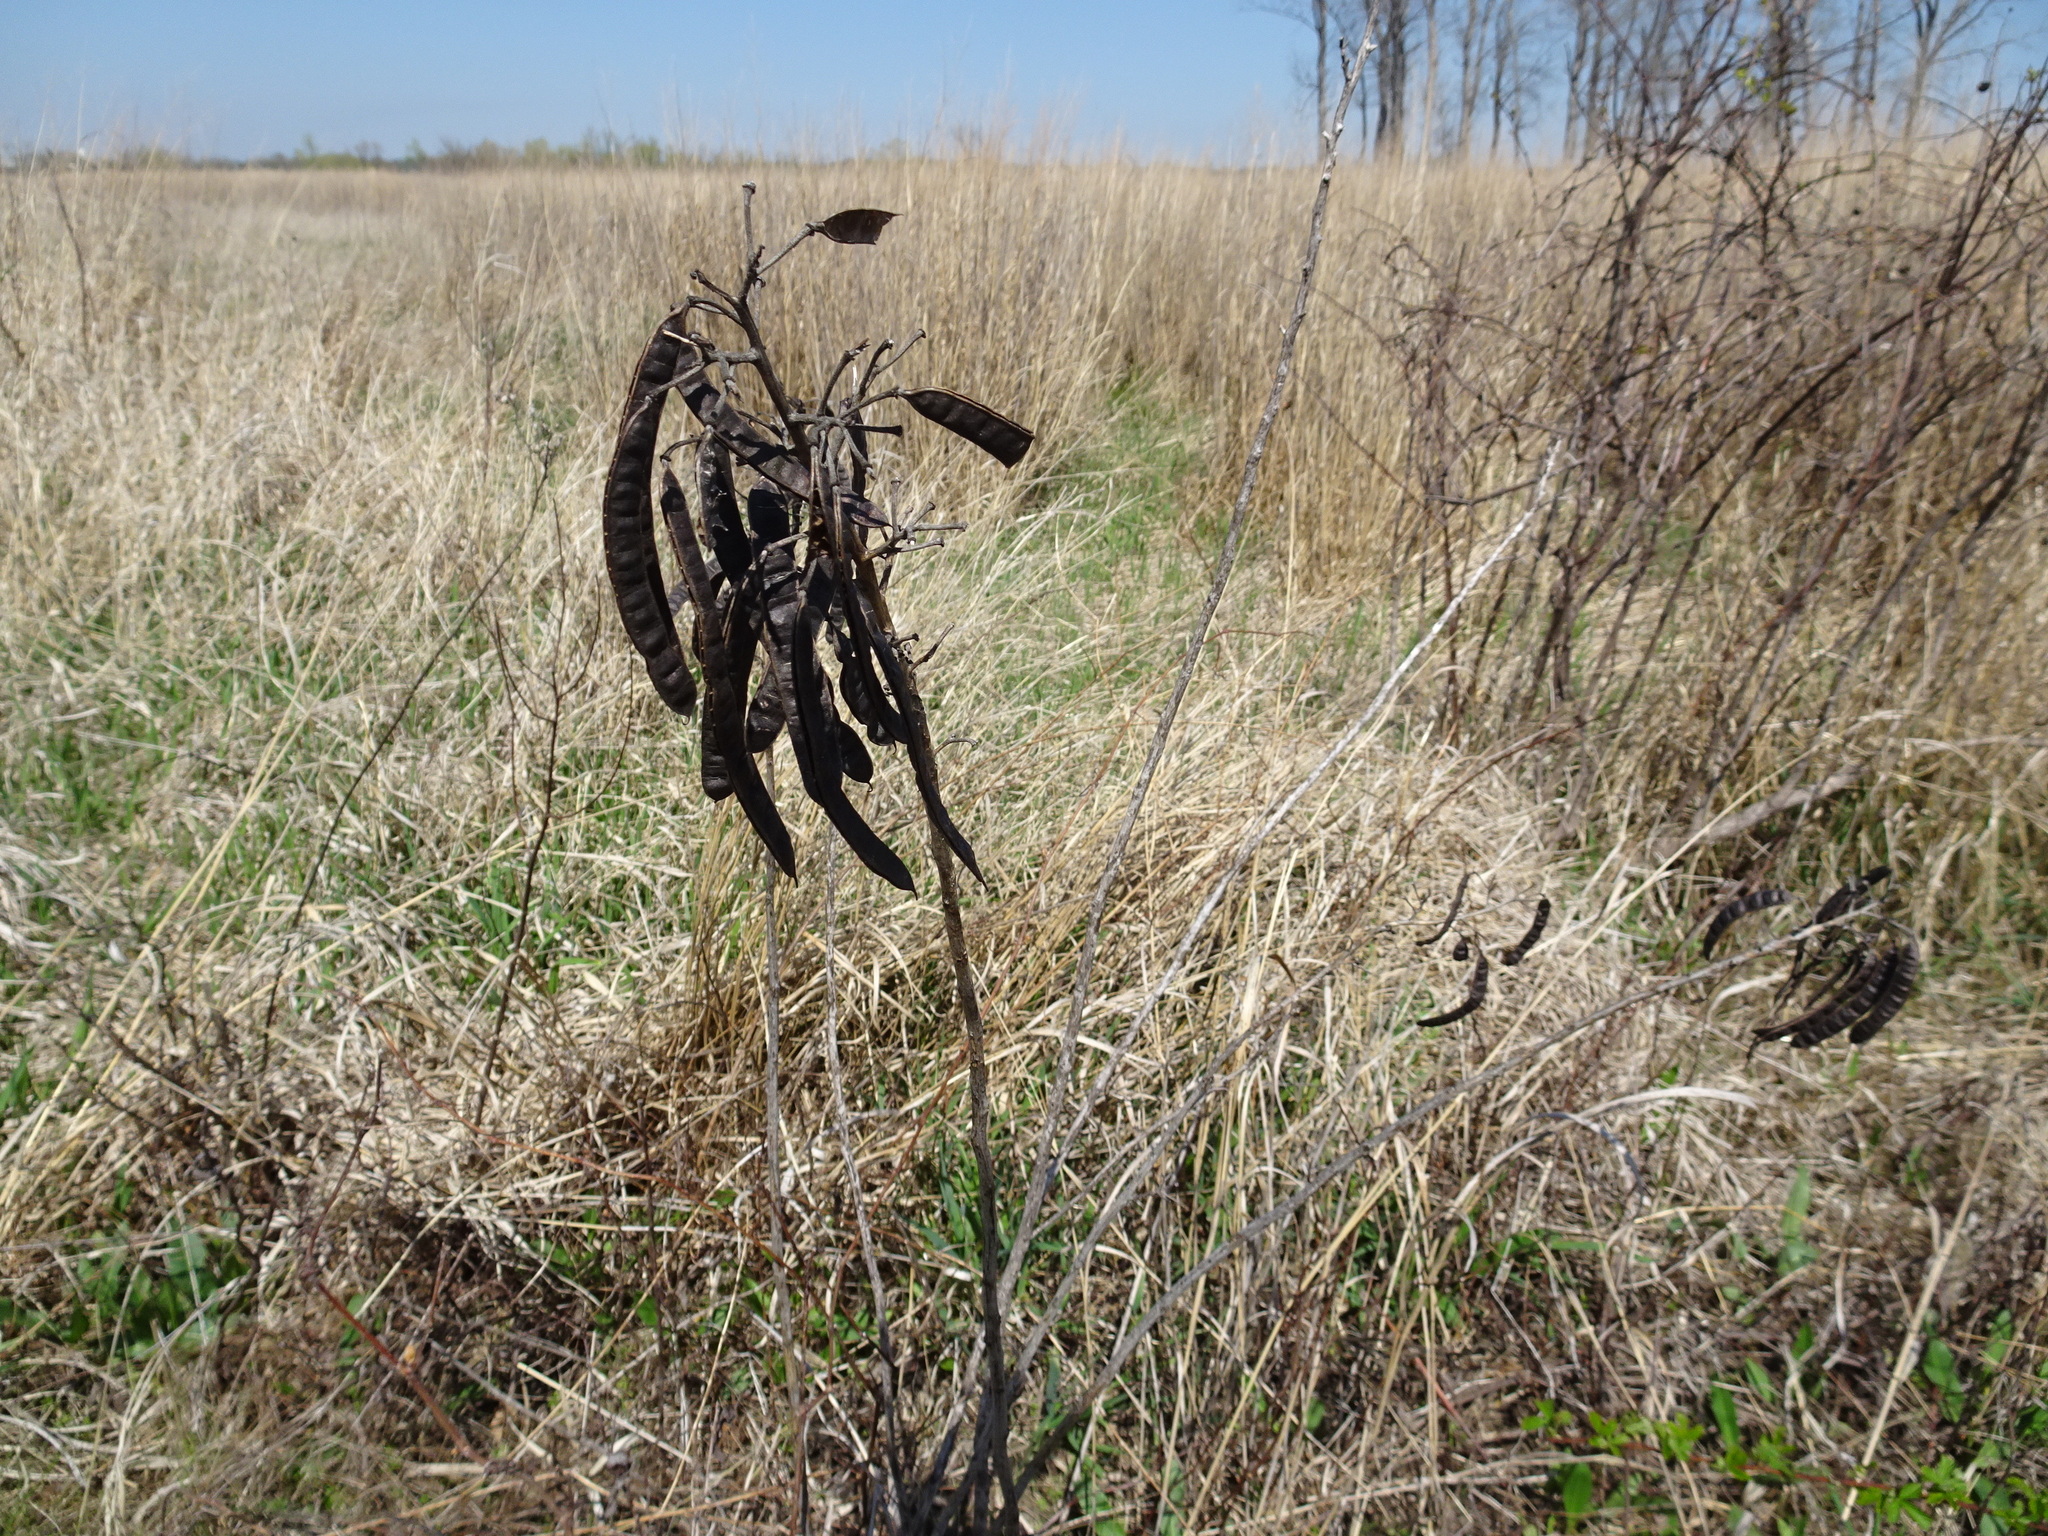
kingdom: Plantae
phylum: Tracheophyta
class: Magnoliopsida
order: Fabales
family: Fabaceae
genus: Senna
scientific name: Senna marilandica
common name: American senna
